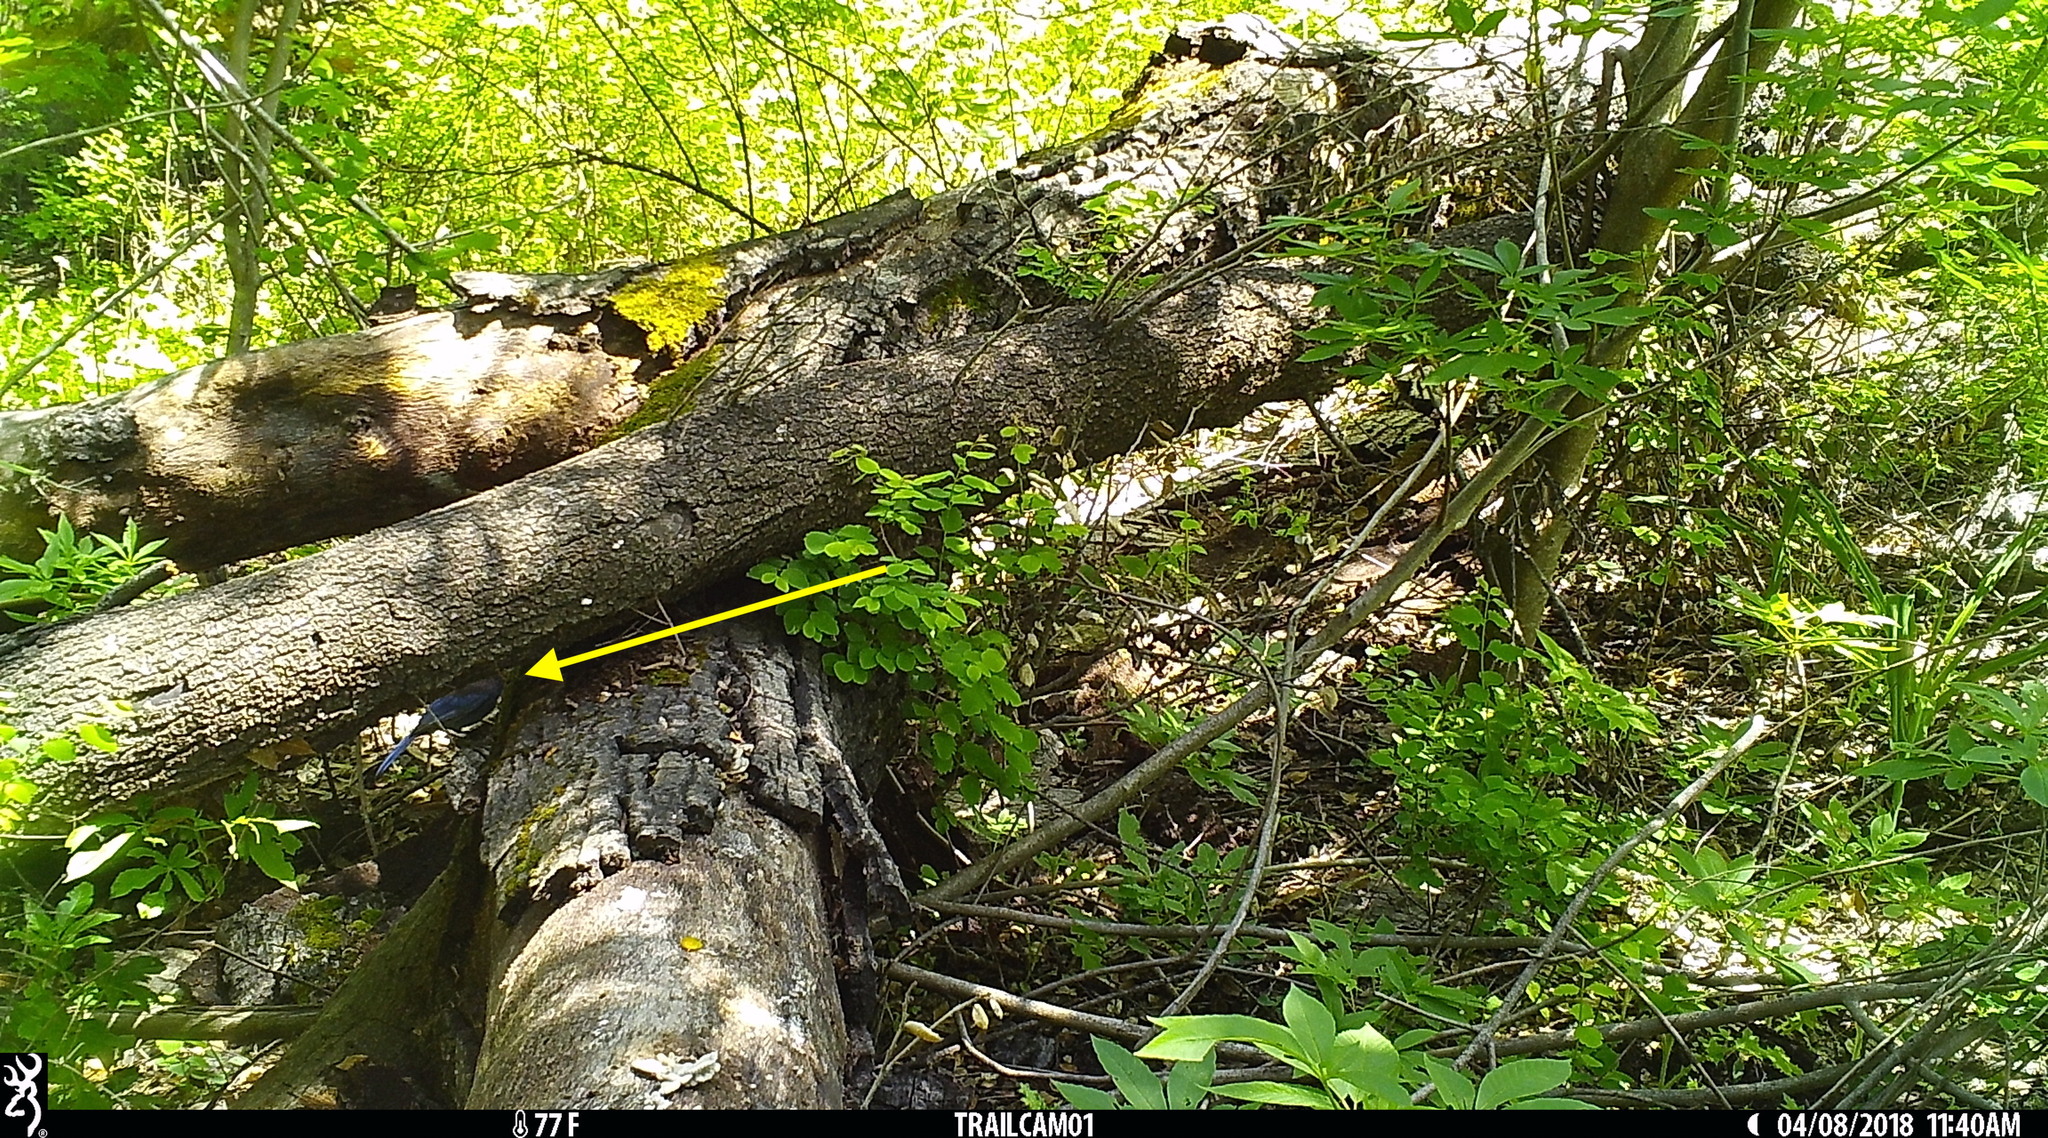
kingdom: Animalia
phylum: Chordata
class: Aves
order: Passeriformes
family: Corvidae
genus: Cyanocitta
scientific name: Cyanocitta stelleri
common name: Steller's jay
